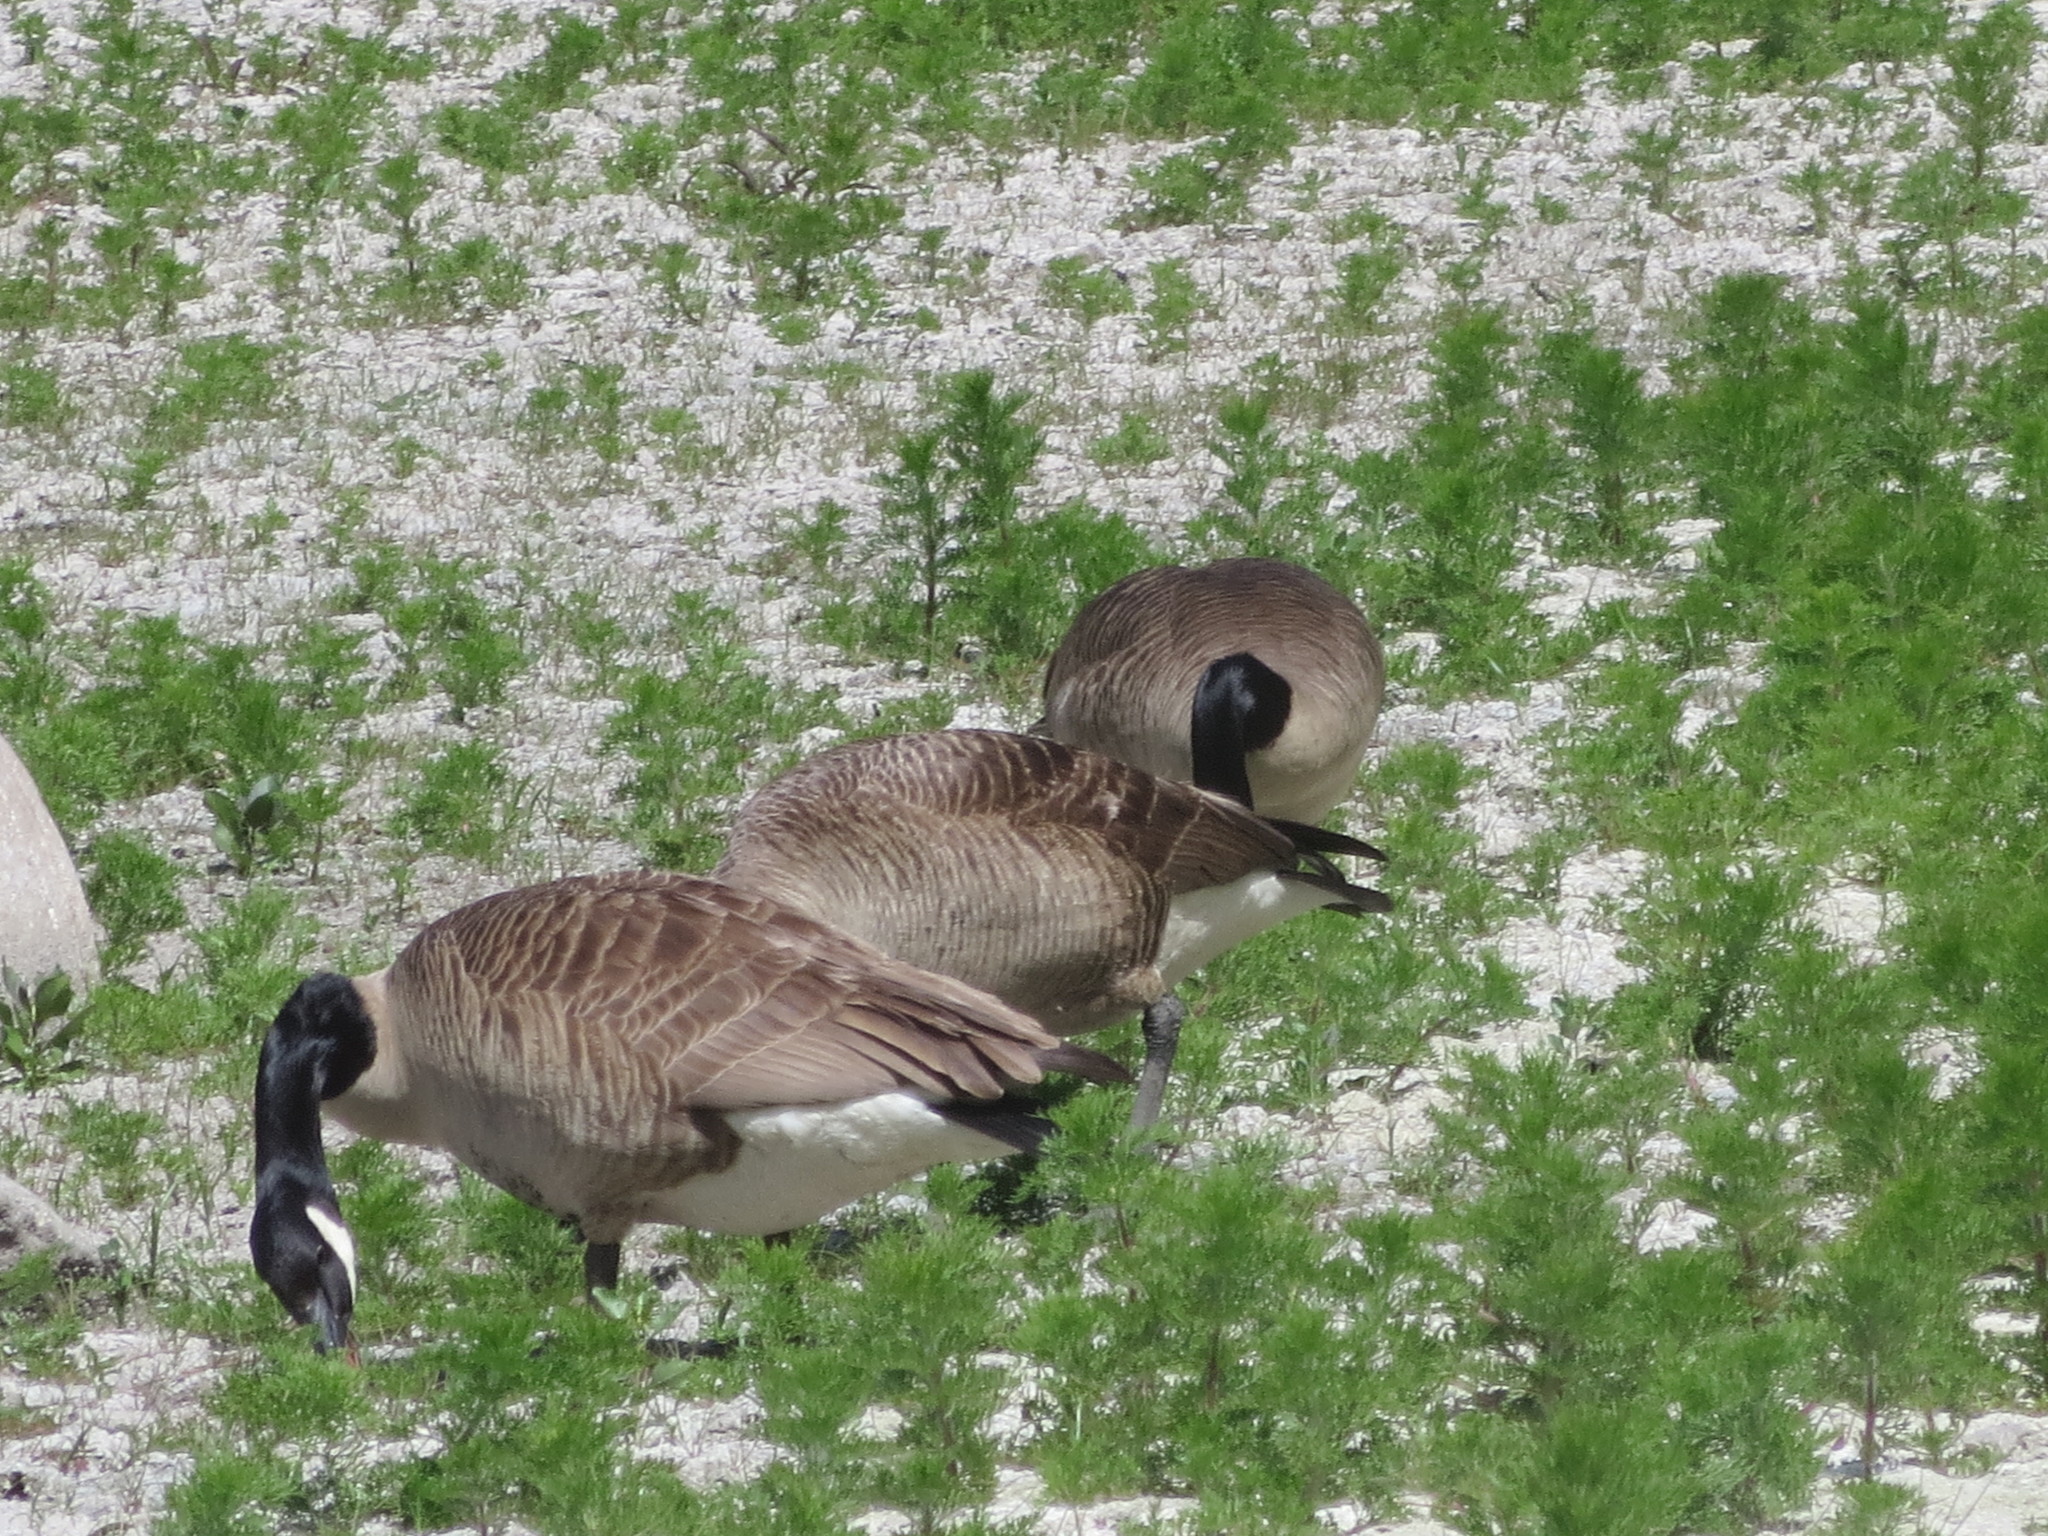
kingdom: Animalia
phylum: Chordata
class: Aves
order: Anseriformes
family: Anatidae
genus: Branta
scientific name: Branta canadensis
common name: Canada goose
